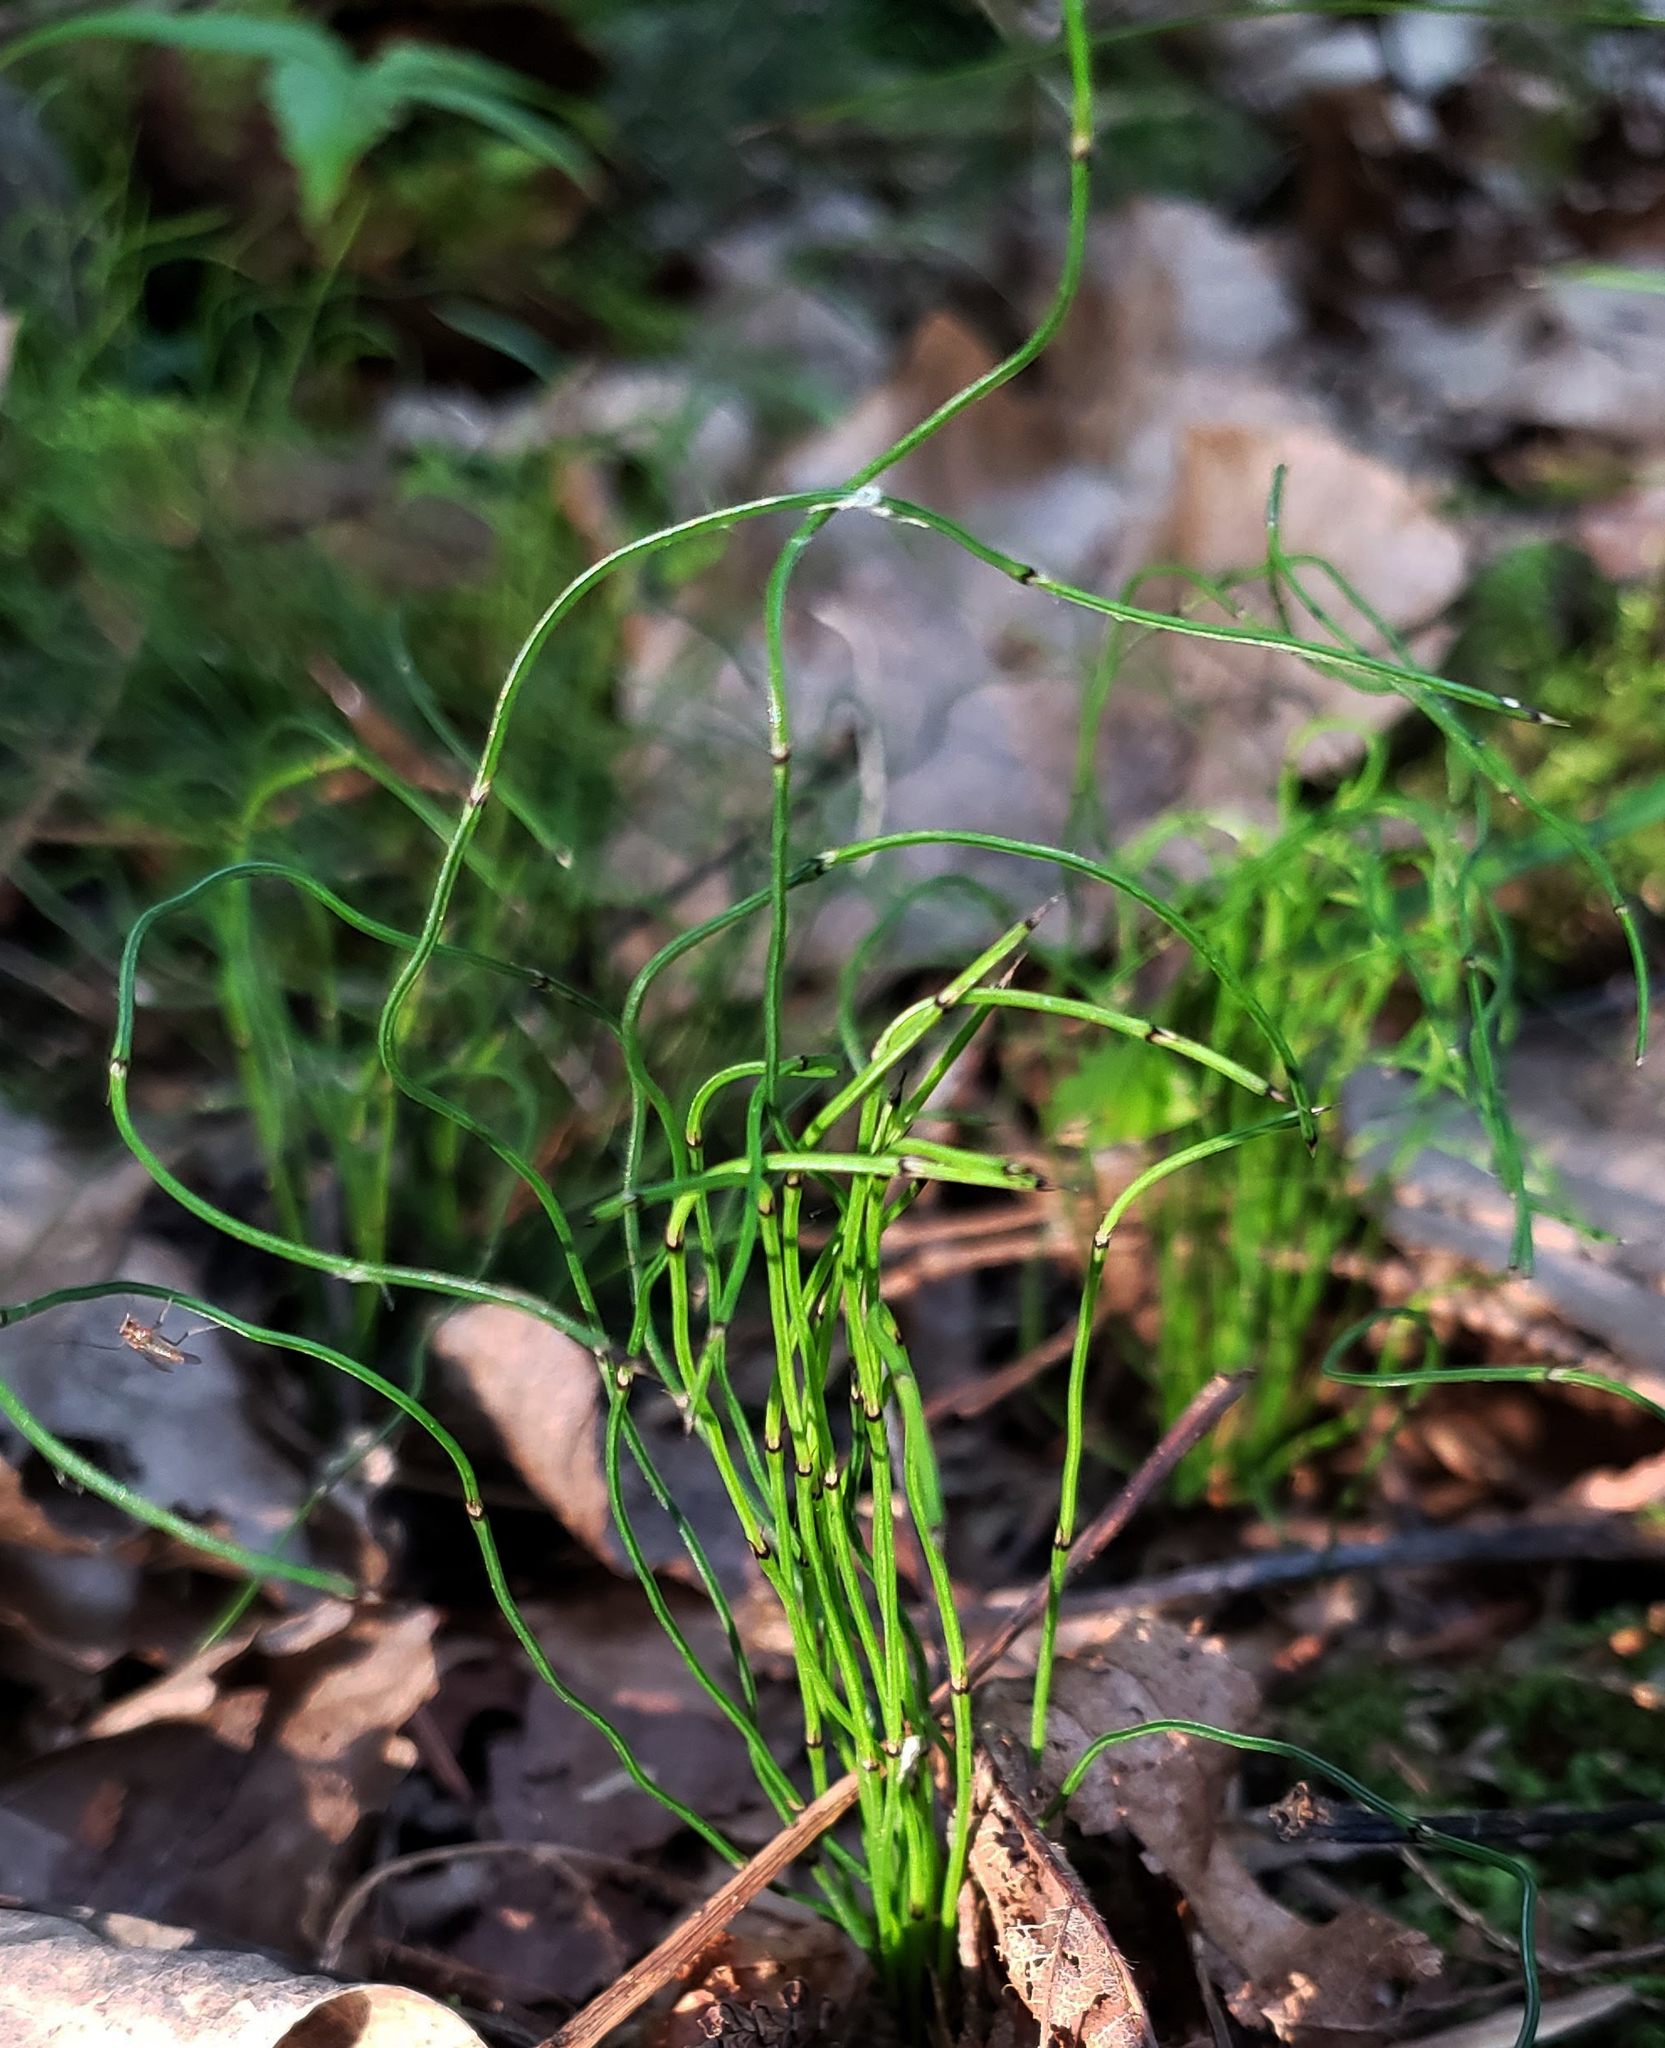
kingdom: Plantae
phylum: Tracheophyta
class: Polypodiopsida
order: Equisetales
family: Equisetaceae
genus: Equisetum
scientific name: Equisetum scirpoides
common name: Delicate horsetail
